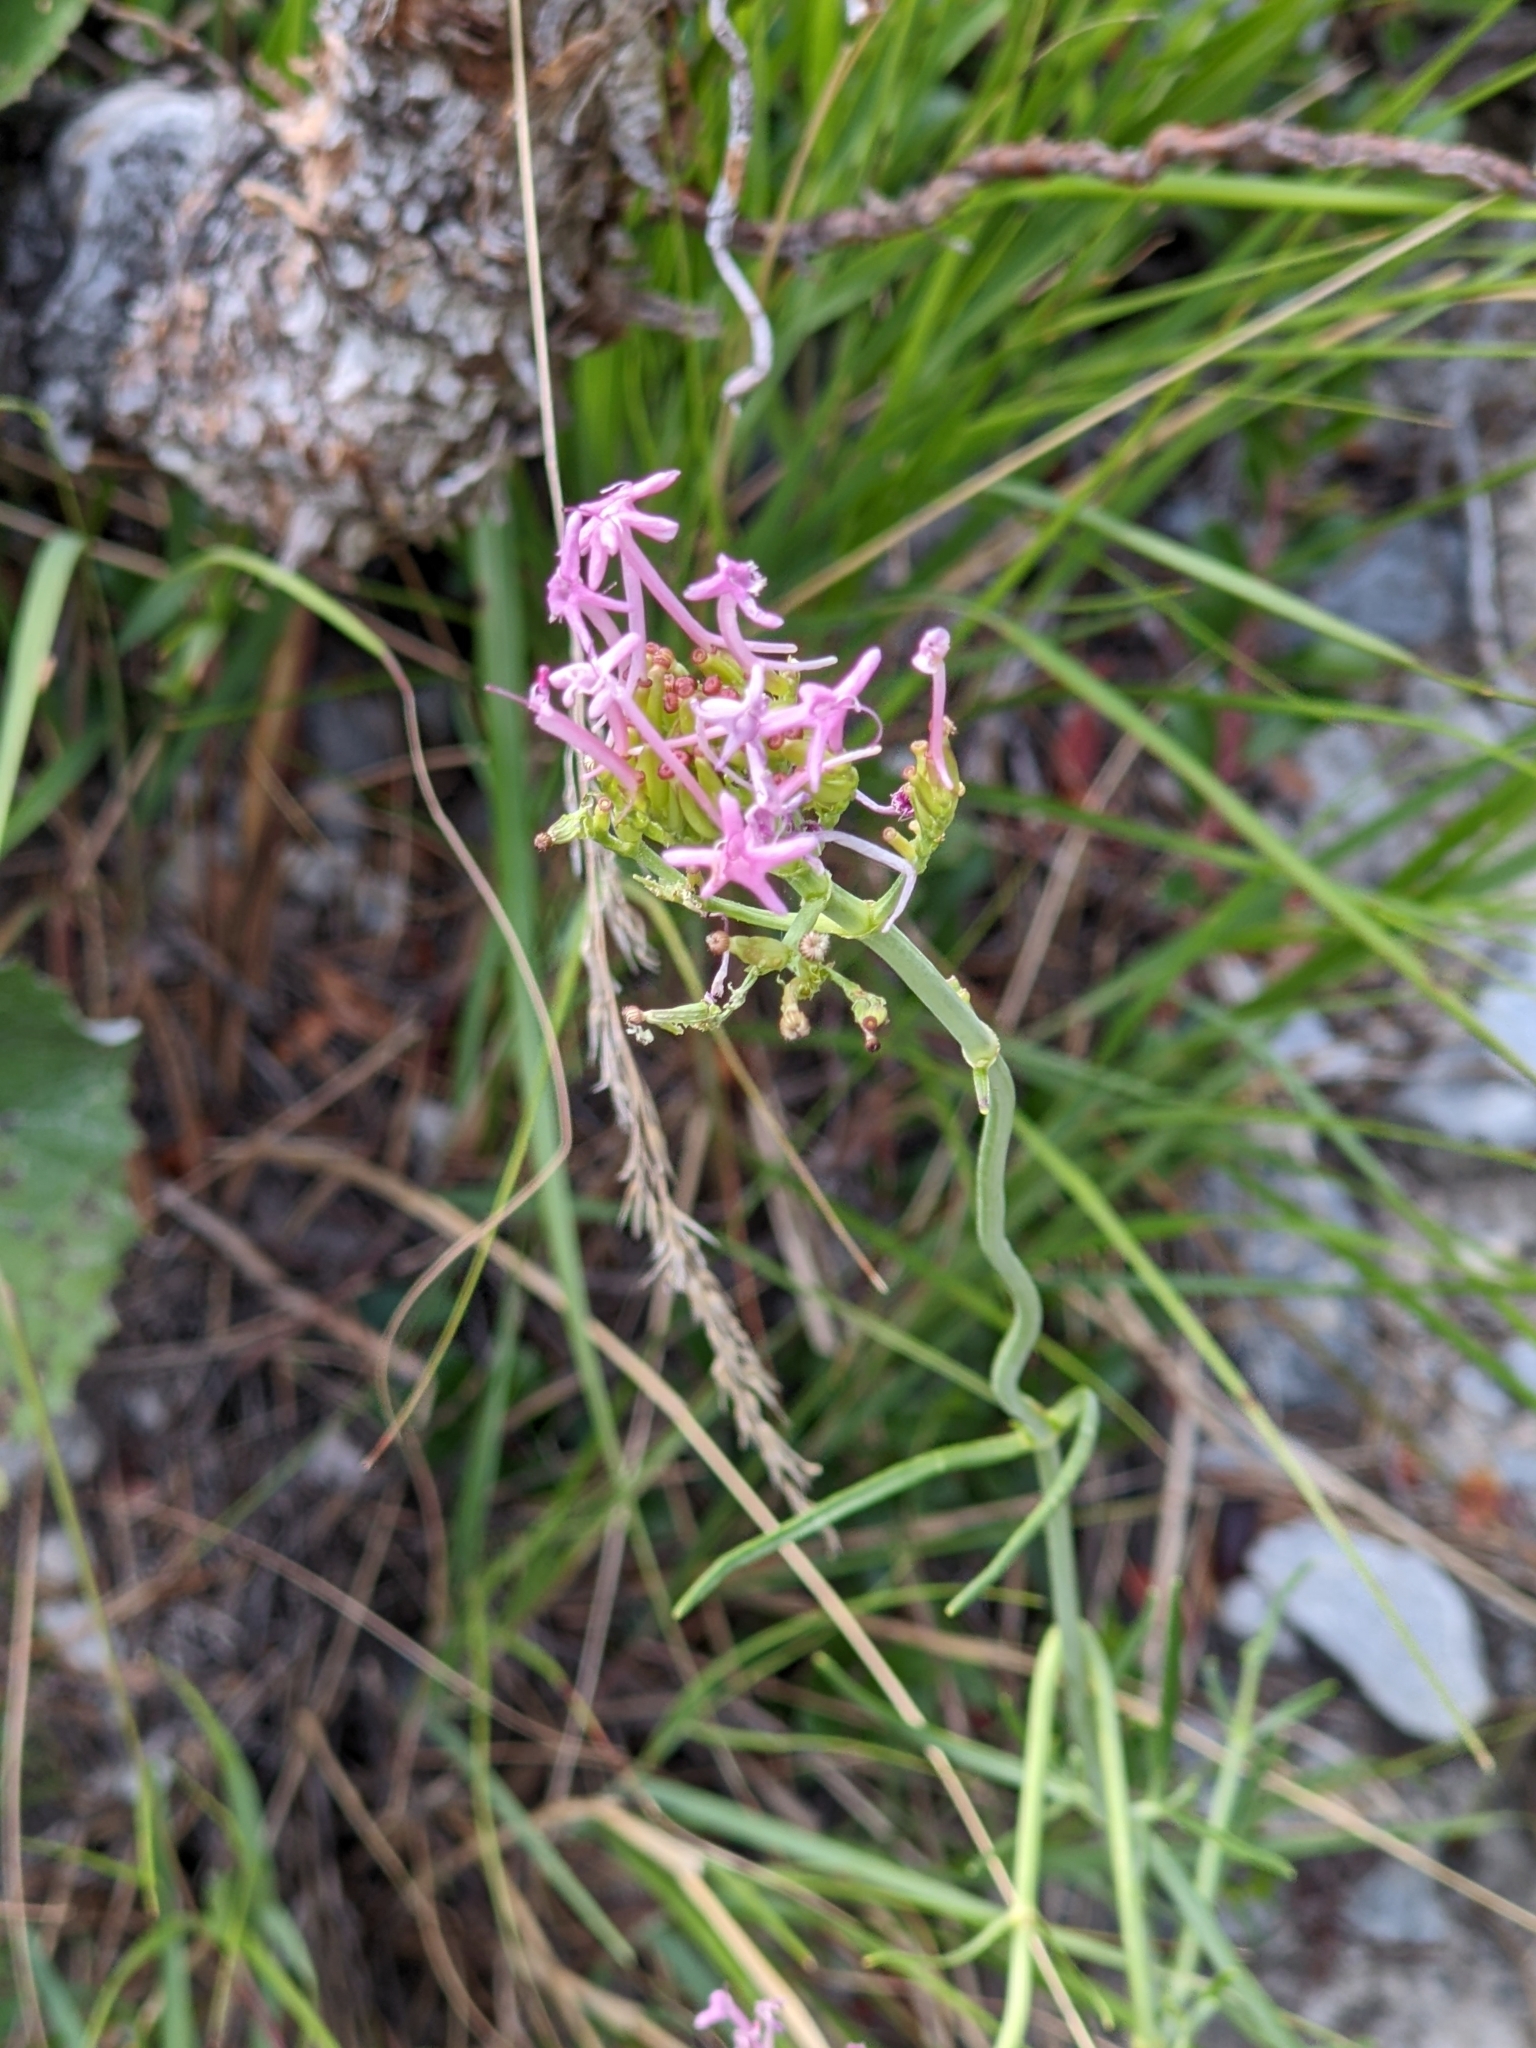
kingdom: Plantae
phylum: Tracheophyta
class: Magnoliopsida
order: Dipsacales
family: Caprifoliaceae
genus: Centranthus
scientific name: Centranthus angustifolius
